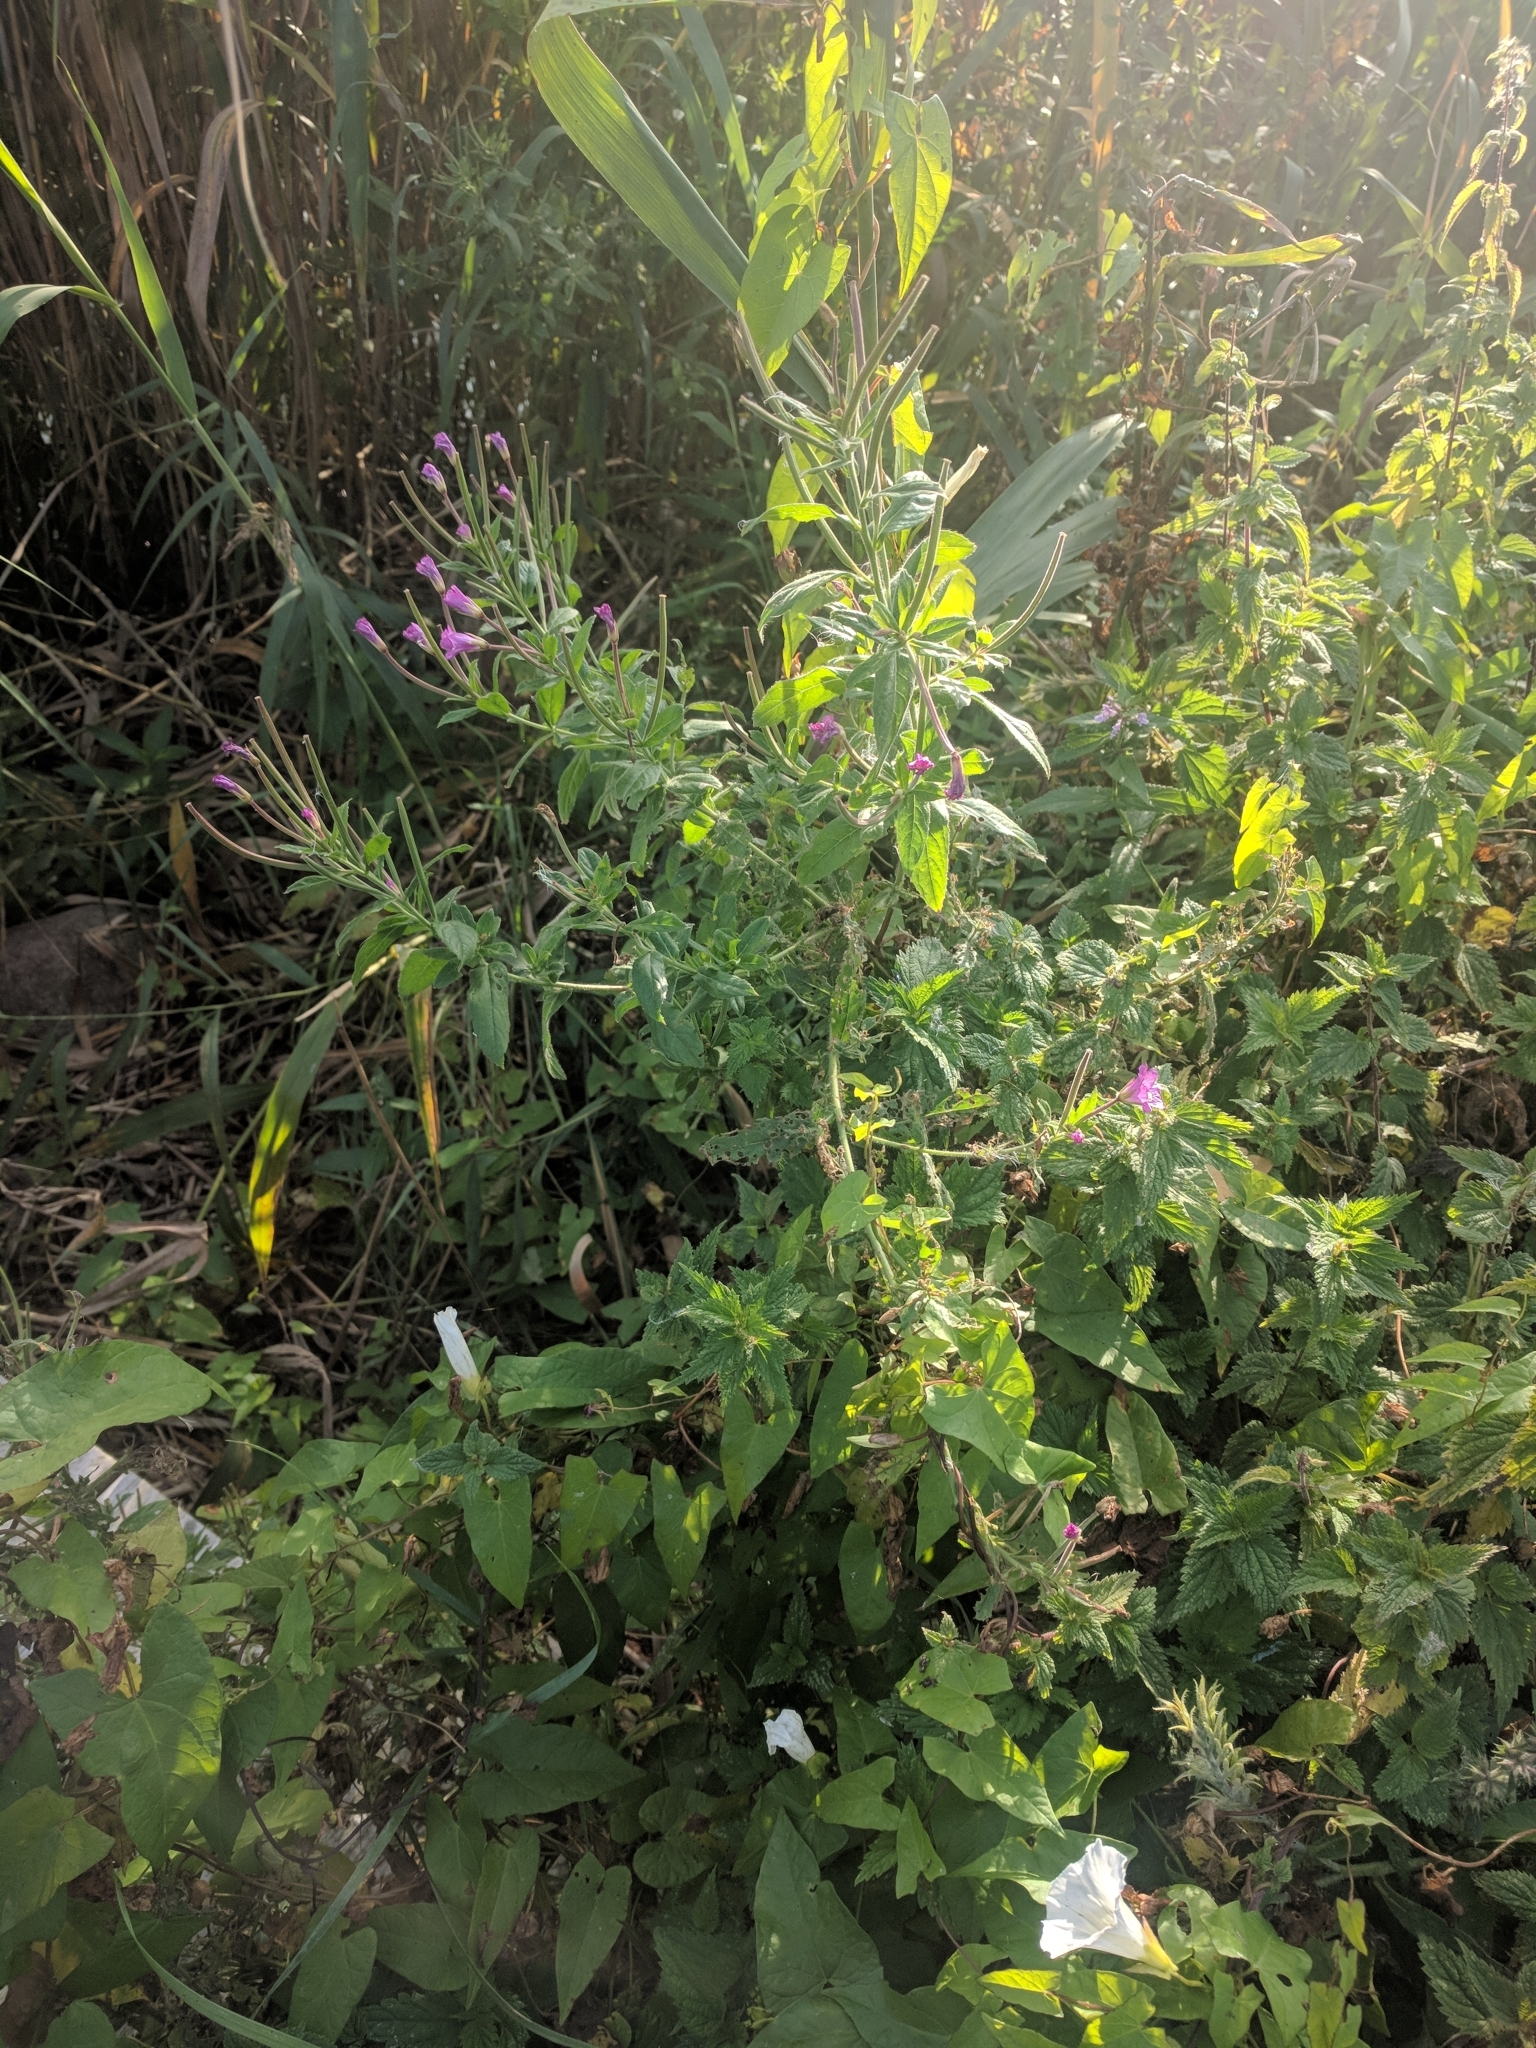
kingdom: Plantae
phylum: Tracheophyta
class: Magnoliopsida
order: Myrtales
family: Onagraceae
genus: Epilobium
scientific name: Epilobium hirsutum
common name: Great willowherb
